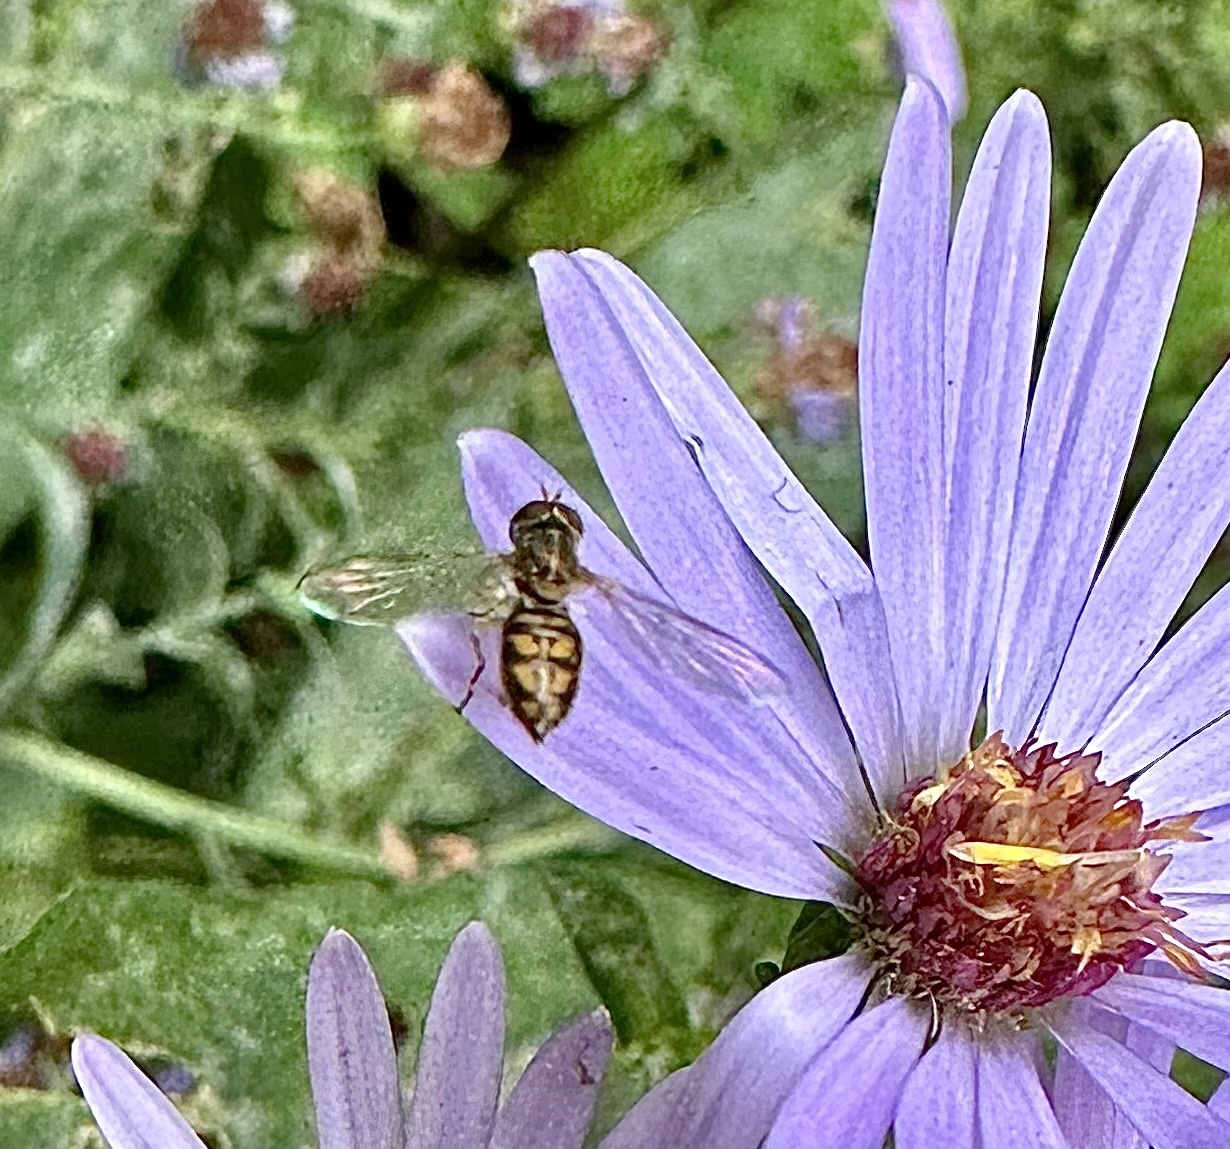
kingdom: Animalia
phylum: Arthropoda
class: Insecta
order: Diptera
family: Syrphidae
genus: Toxomerus
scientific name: Toxomerus marginatus
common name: Syrphid fly
